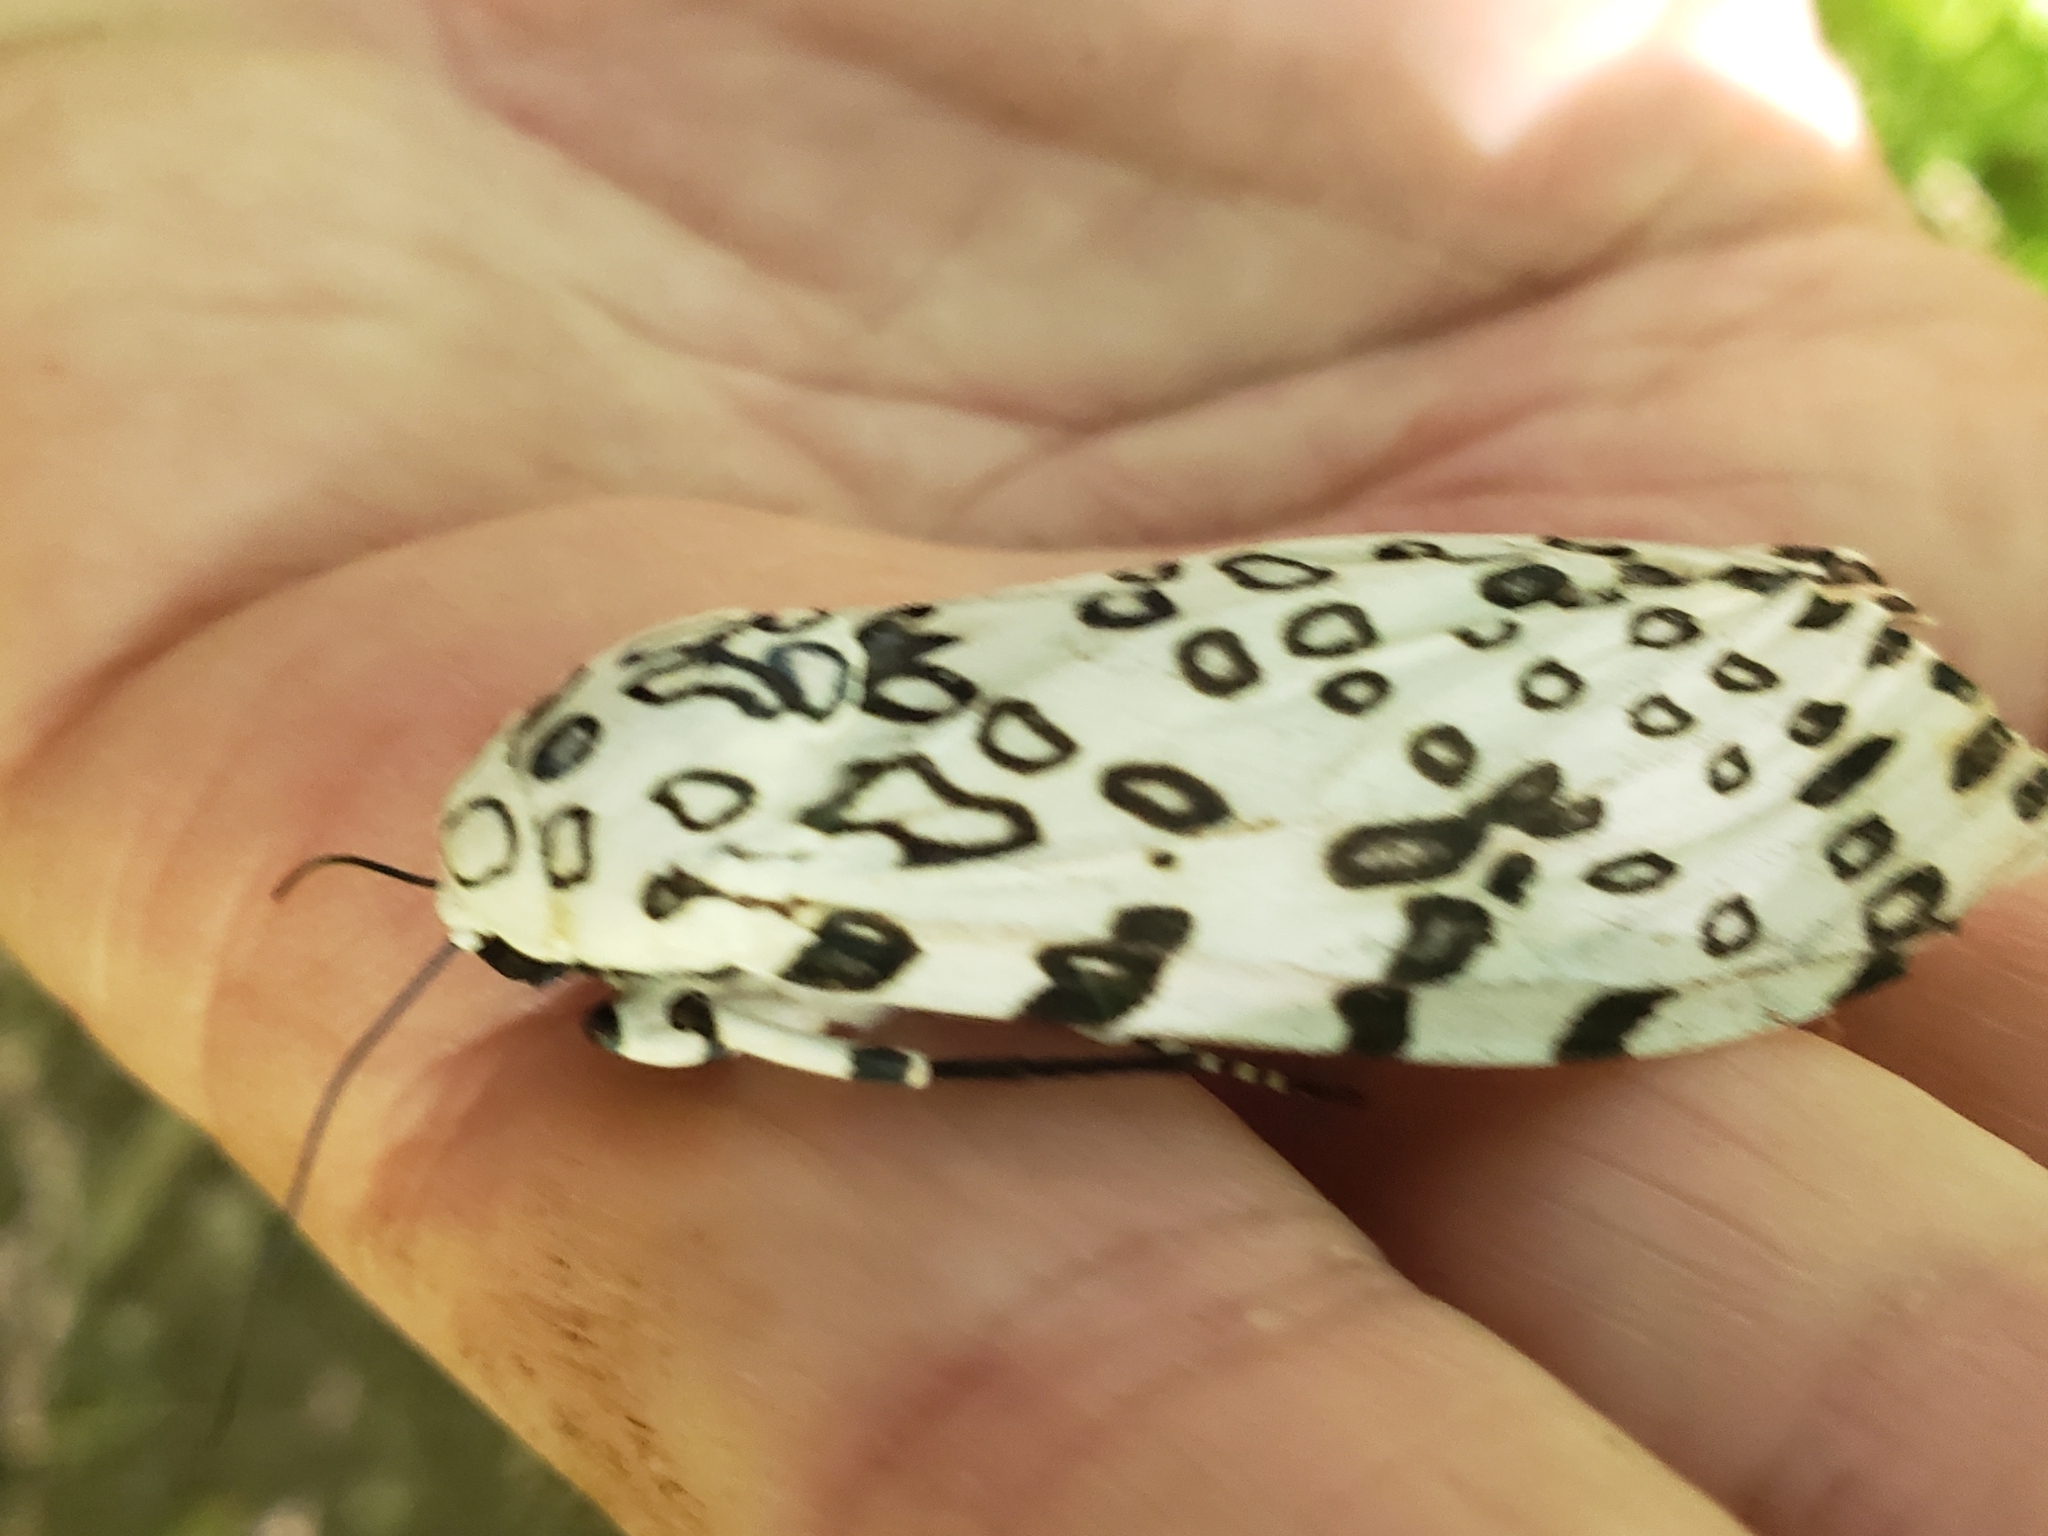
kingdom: Animalia
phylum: Arthropoda
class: Insecta
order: Lepidoptera
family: Erebidae
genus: Hypercompe
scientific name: Hypercompe scribonia
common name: Giant leopard moth
